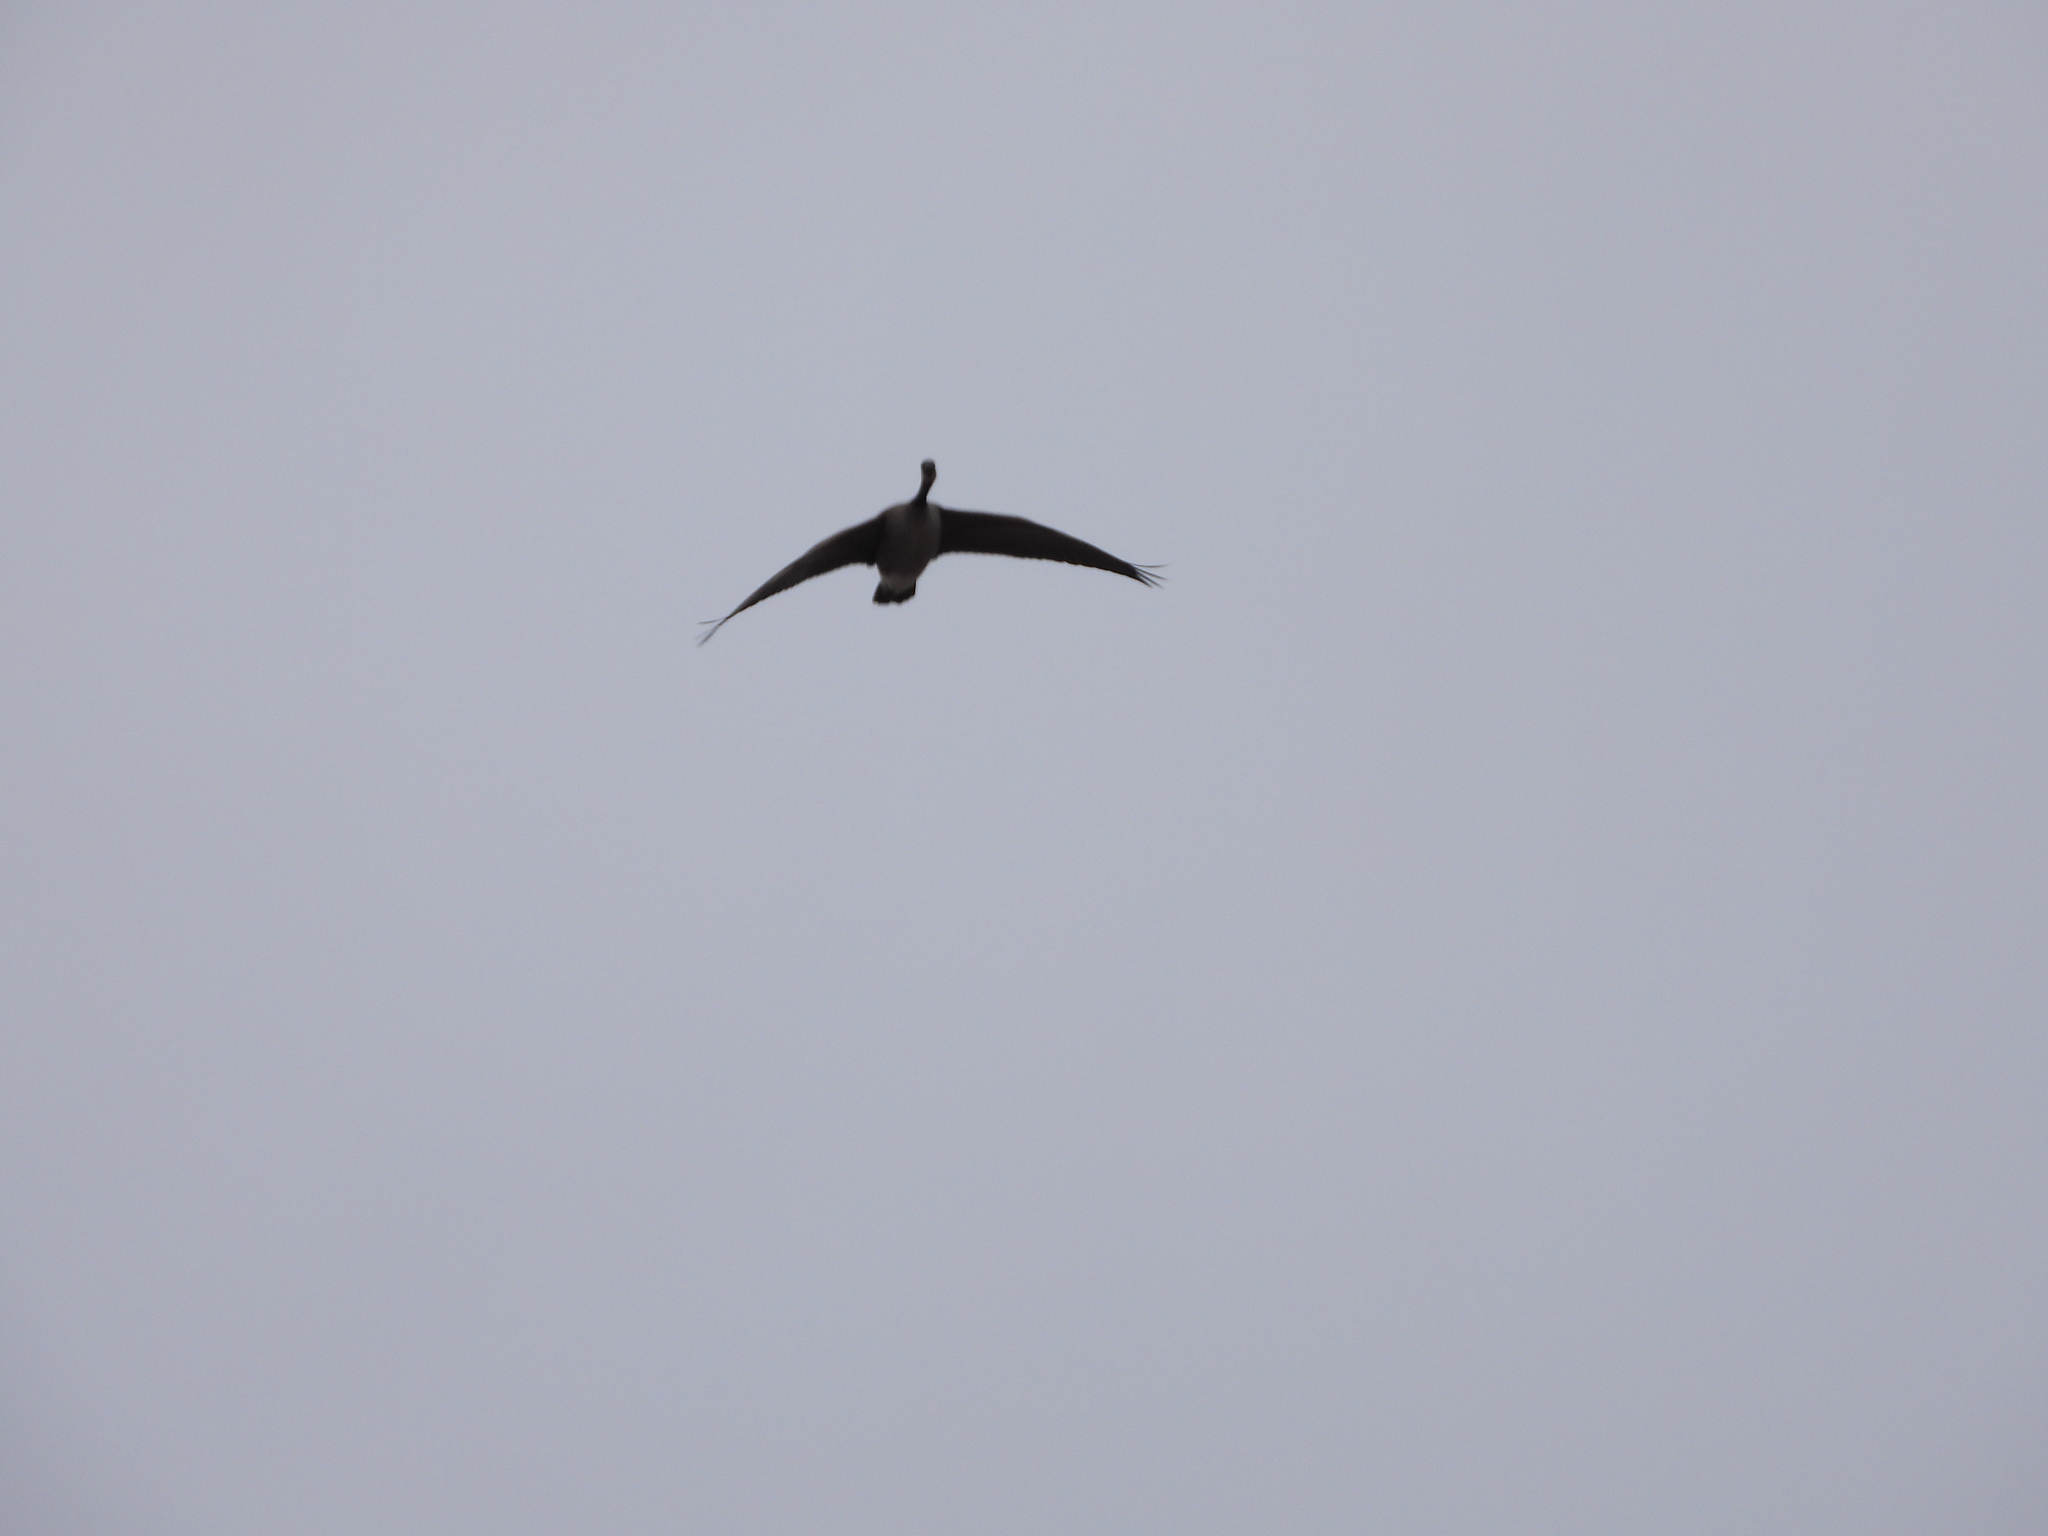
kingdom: Animalia
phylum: Chordata
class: Aves
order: Anseriformes
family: Anatidae
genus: Branta
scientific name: Branta canadensis
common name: Canada goose
